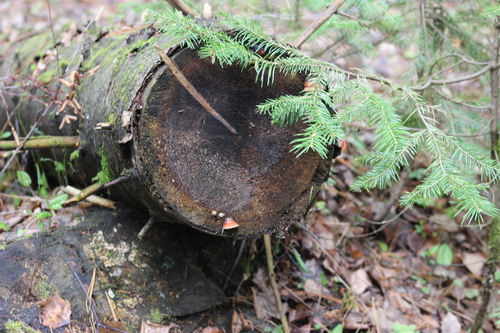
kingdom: Fungi
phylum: Basidiomycota
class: Agaricomycetes
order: Polyporales
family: Fomitopsidaceae
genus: Fomitopsis
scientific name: Fomitopsis pinicola
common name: Red-belted bracket
